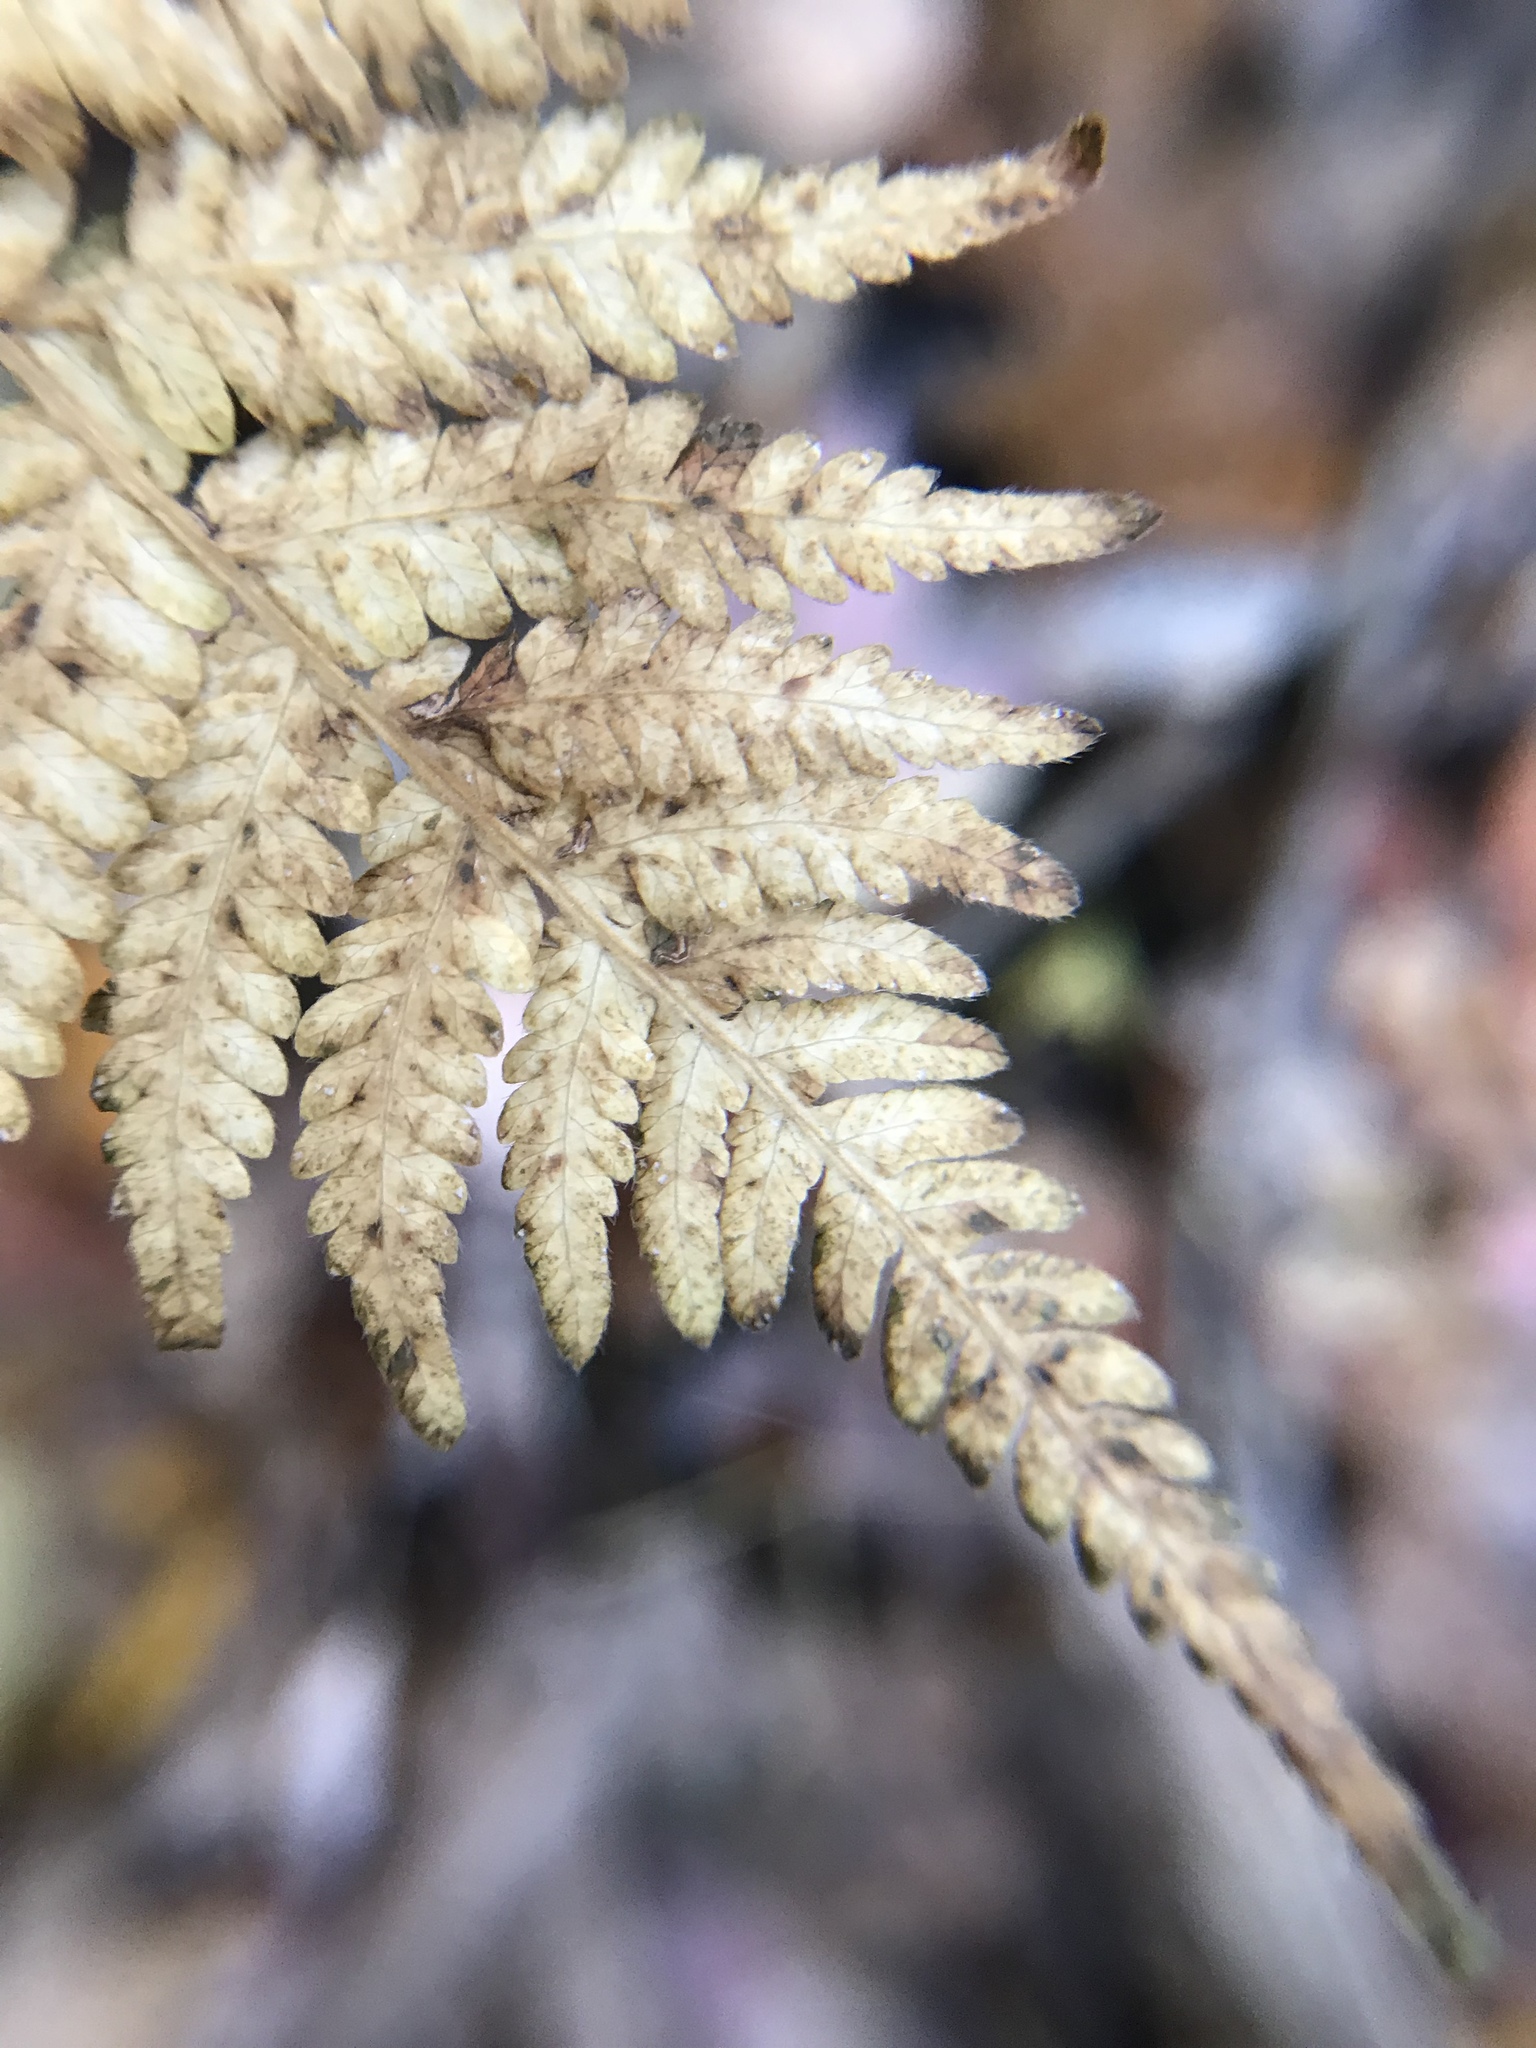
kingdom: Plantae
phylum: Tracheophyta
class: Polypodiopsida
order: Polypodiales
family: Thelypteridaceae
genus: Amauropelta
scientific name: Amauropelta noveboracensis
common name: New york fern
